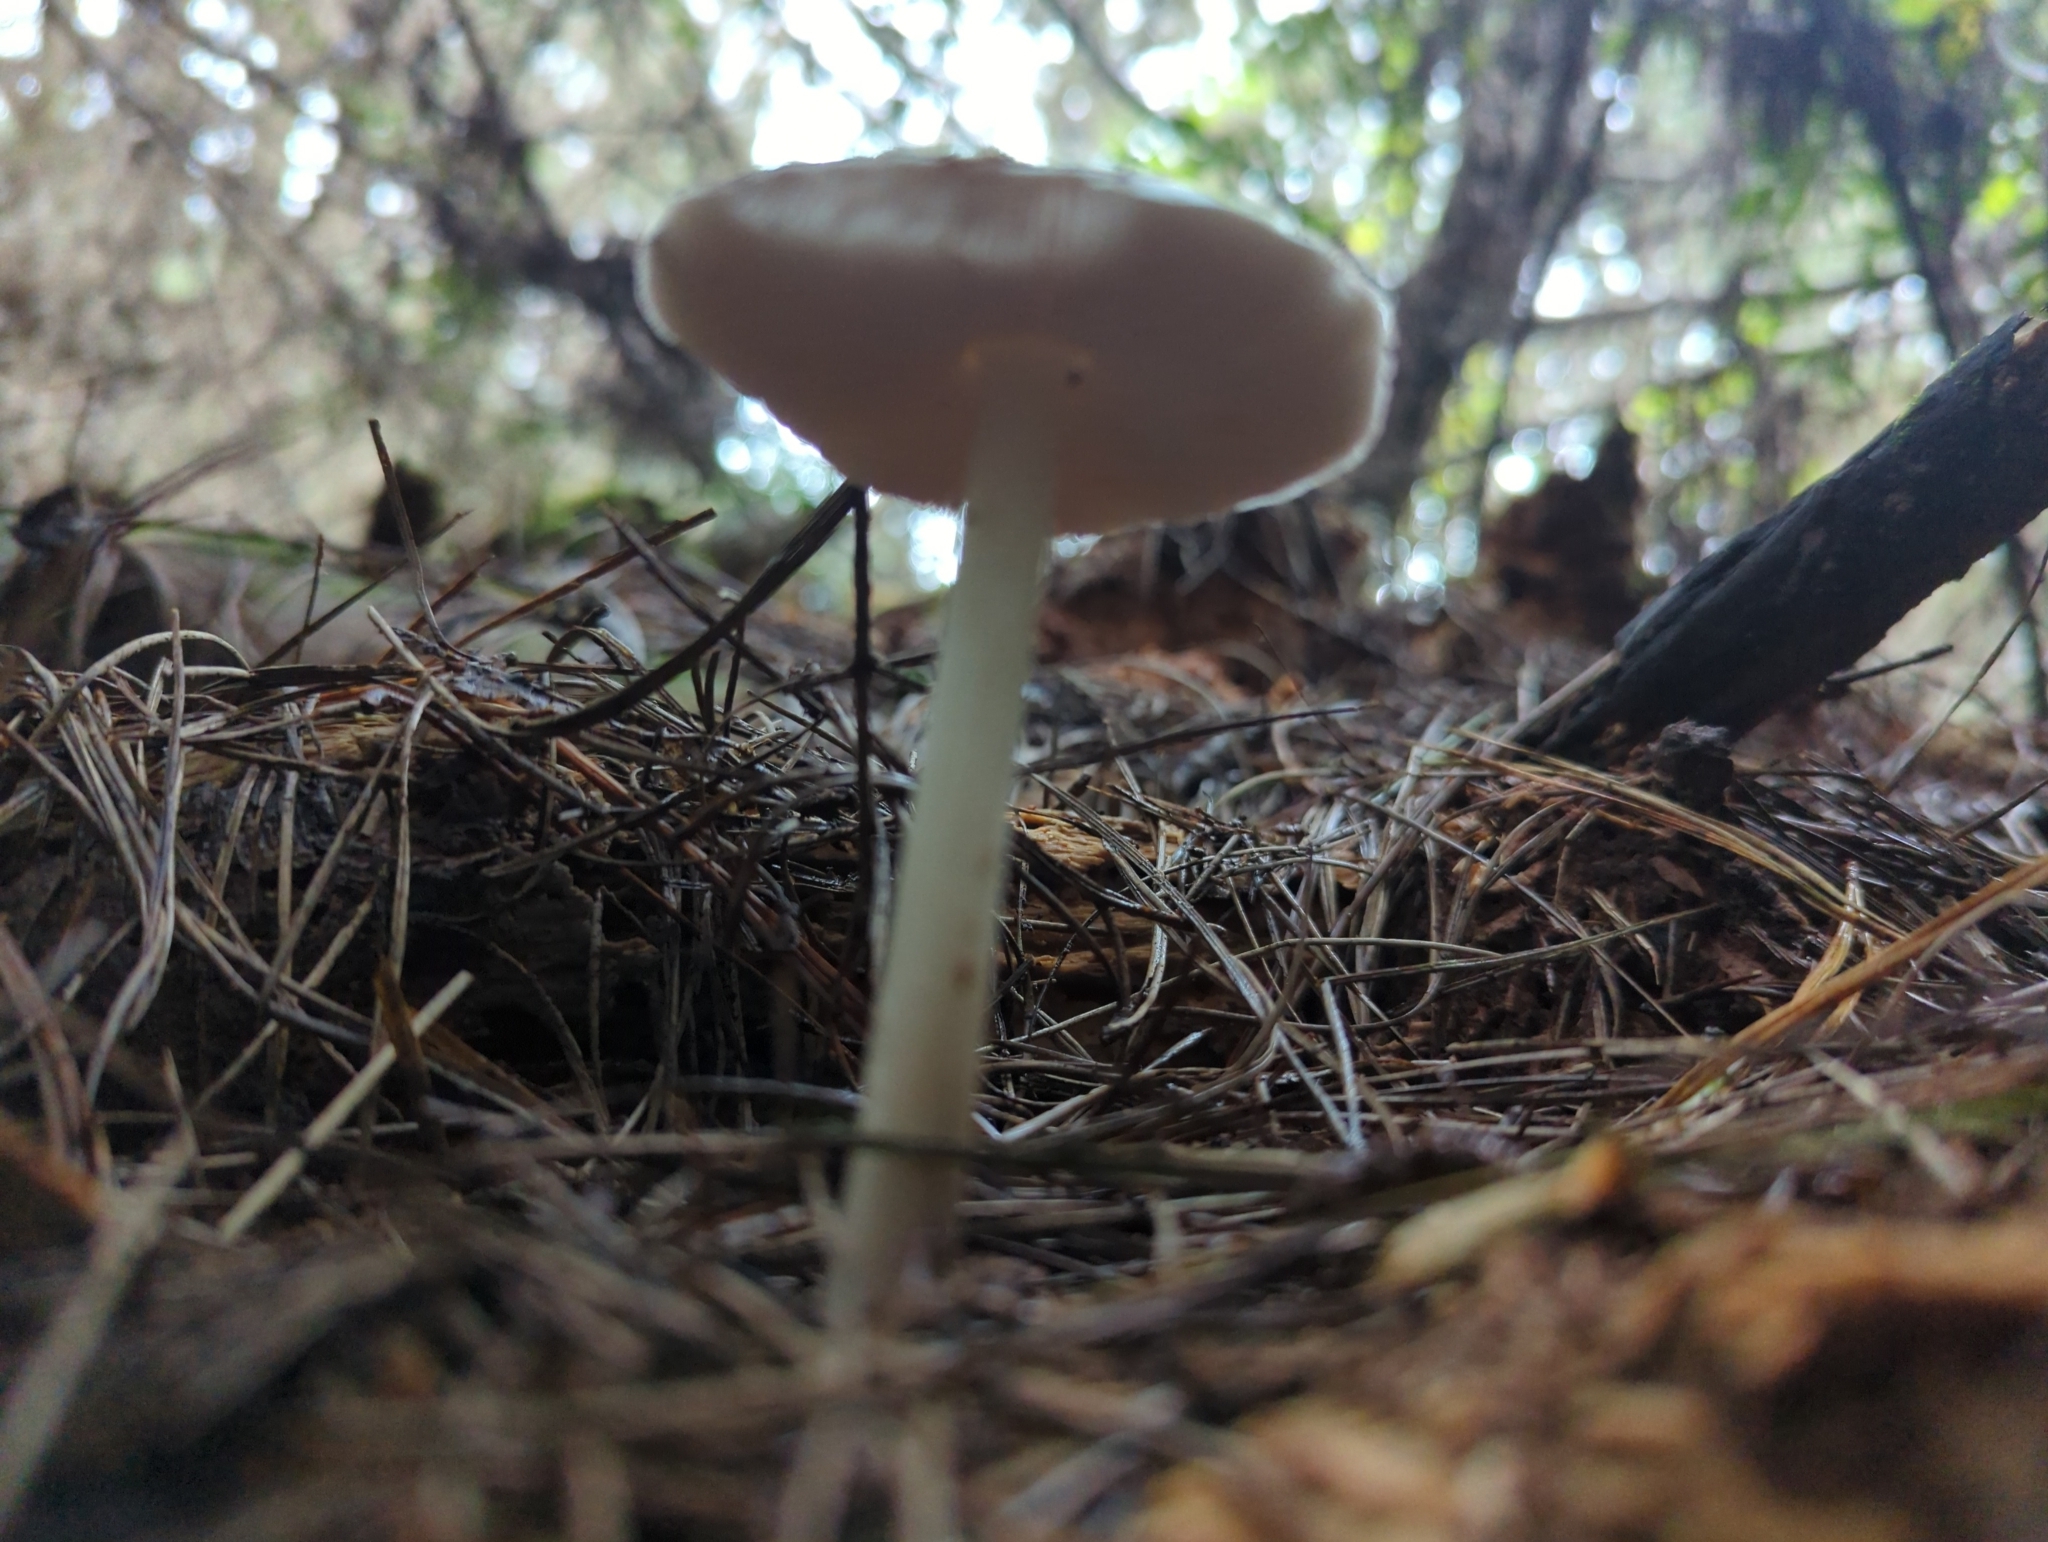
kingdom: Fungi
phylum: Basidiomycota
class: Agaricomycetes
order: Agaricales
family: Pluteaceae
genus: Volvopluteus
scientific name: Volvopluteus gloiocephalus
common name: Stubble rosegill
